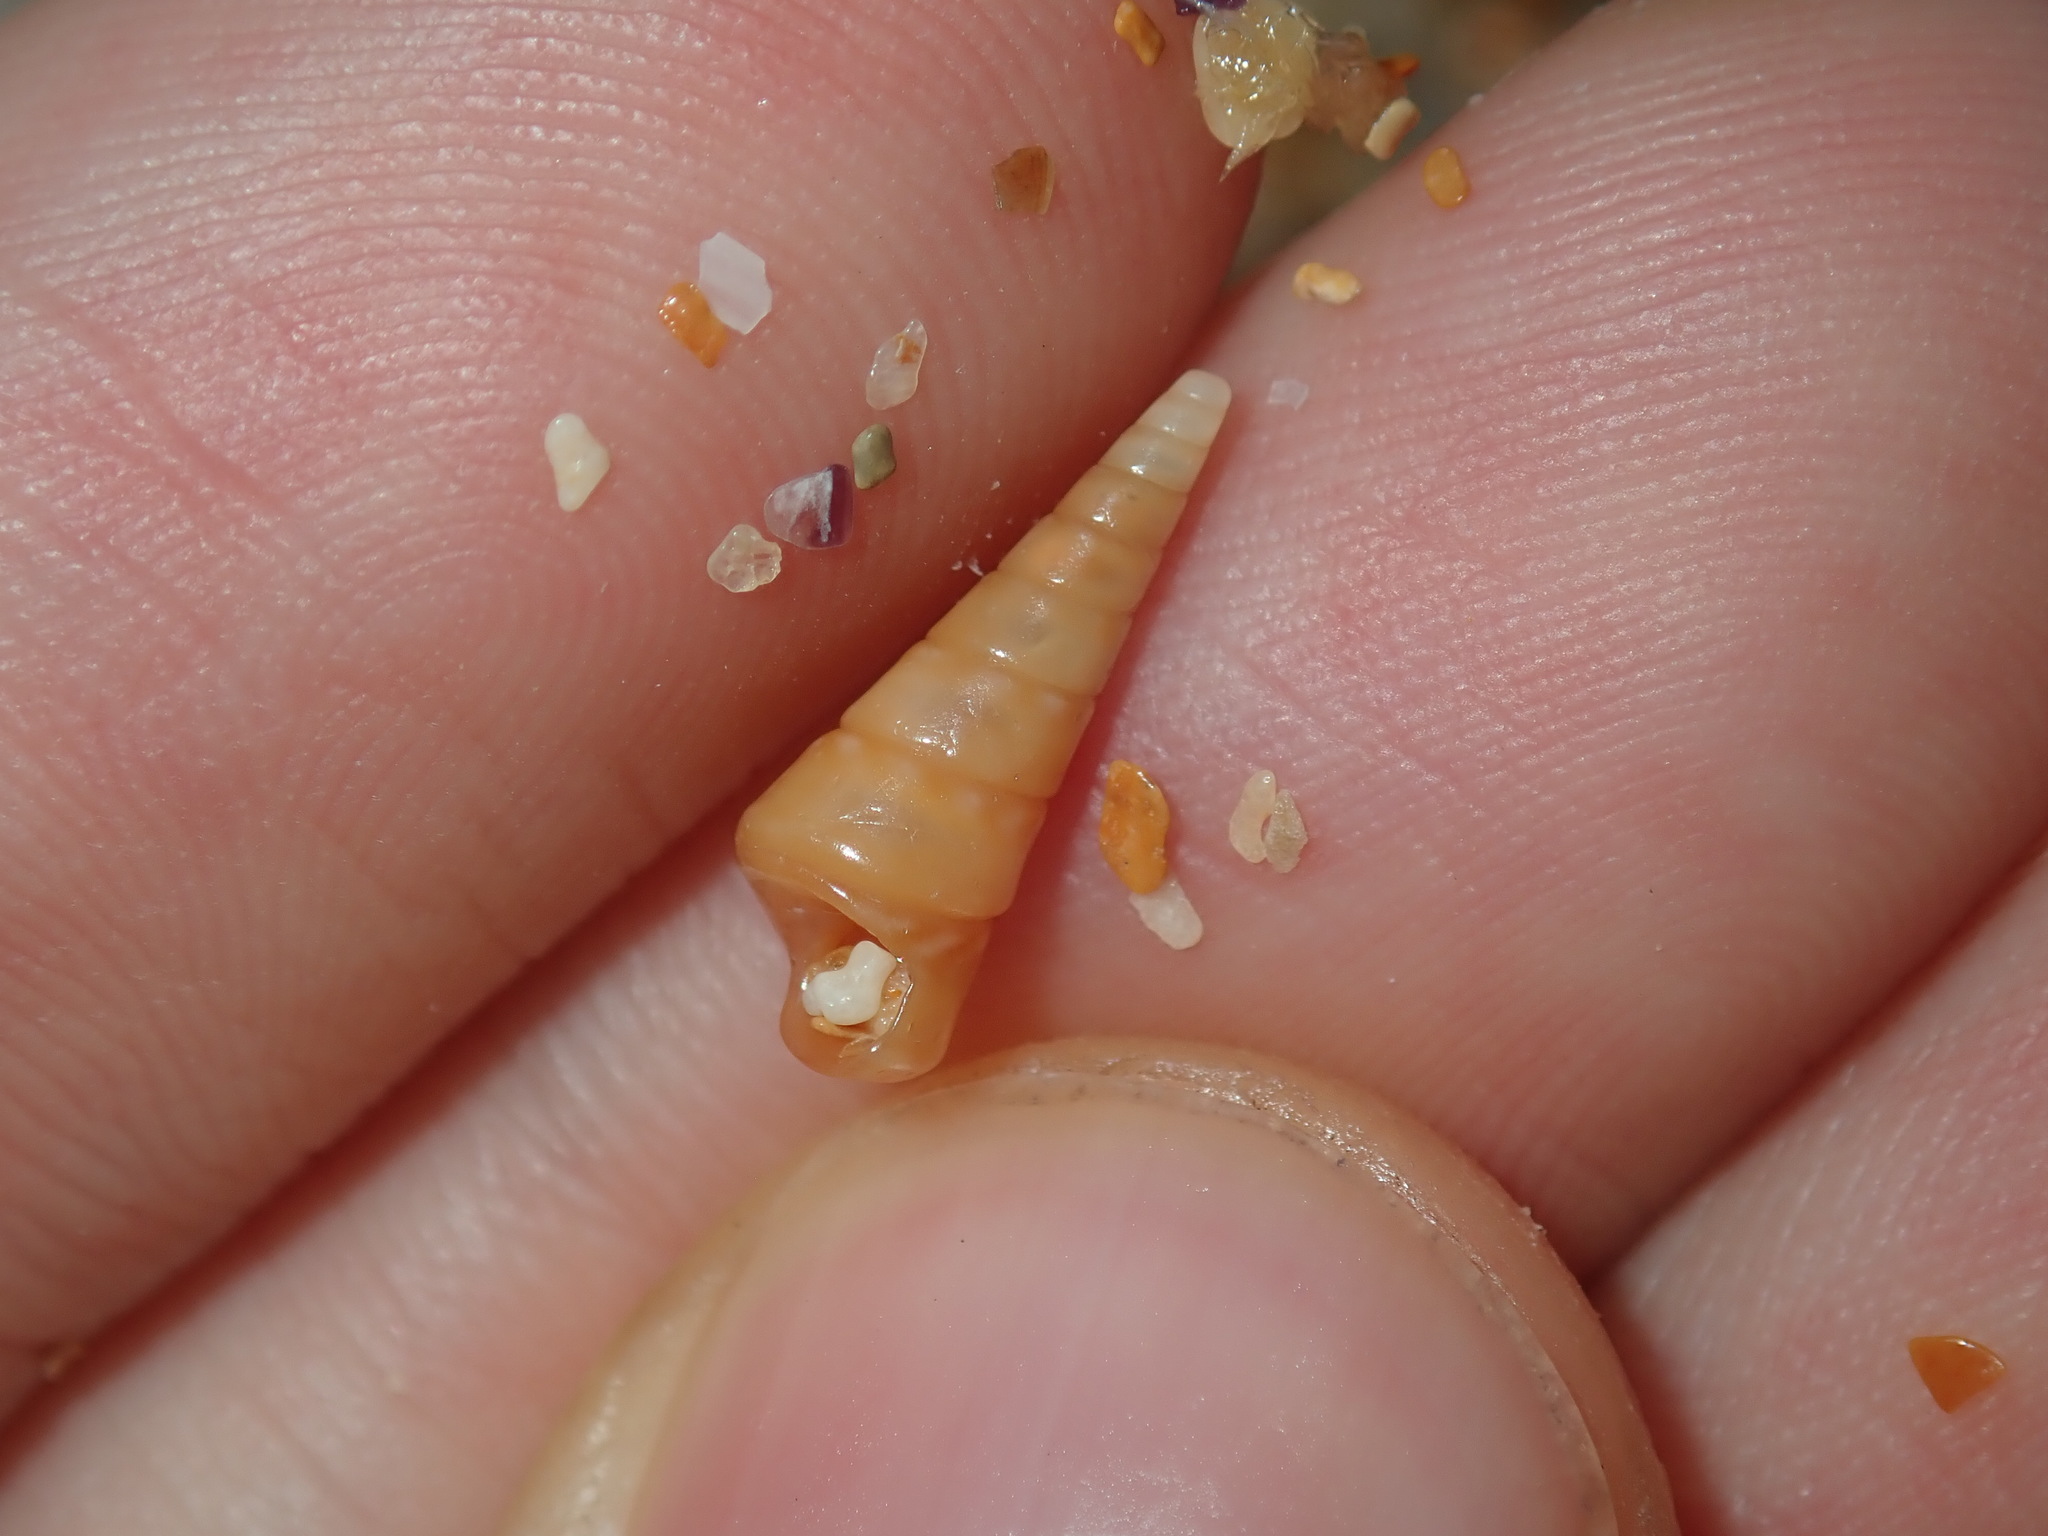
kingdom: Animalia
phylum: Mollusca
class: Gastropoda
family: Turritellidae
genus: Colpospira
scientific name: Colpospira guillaumei
